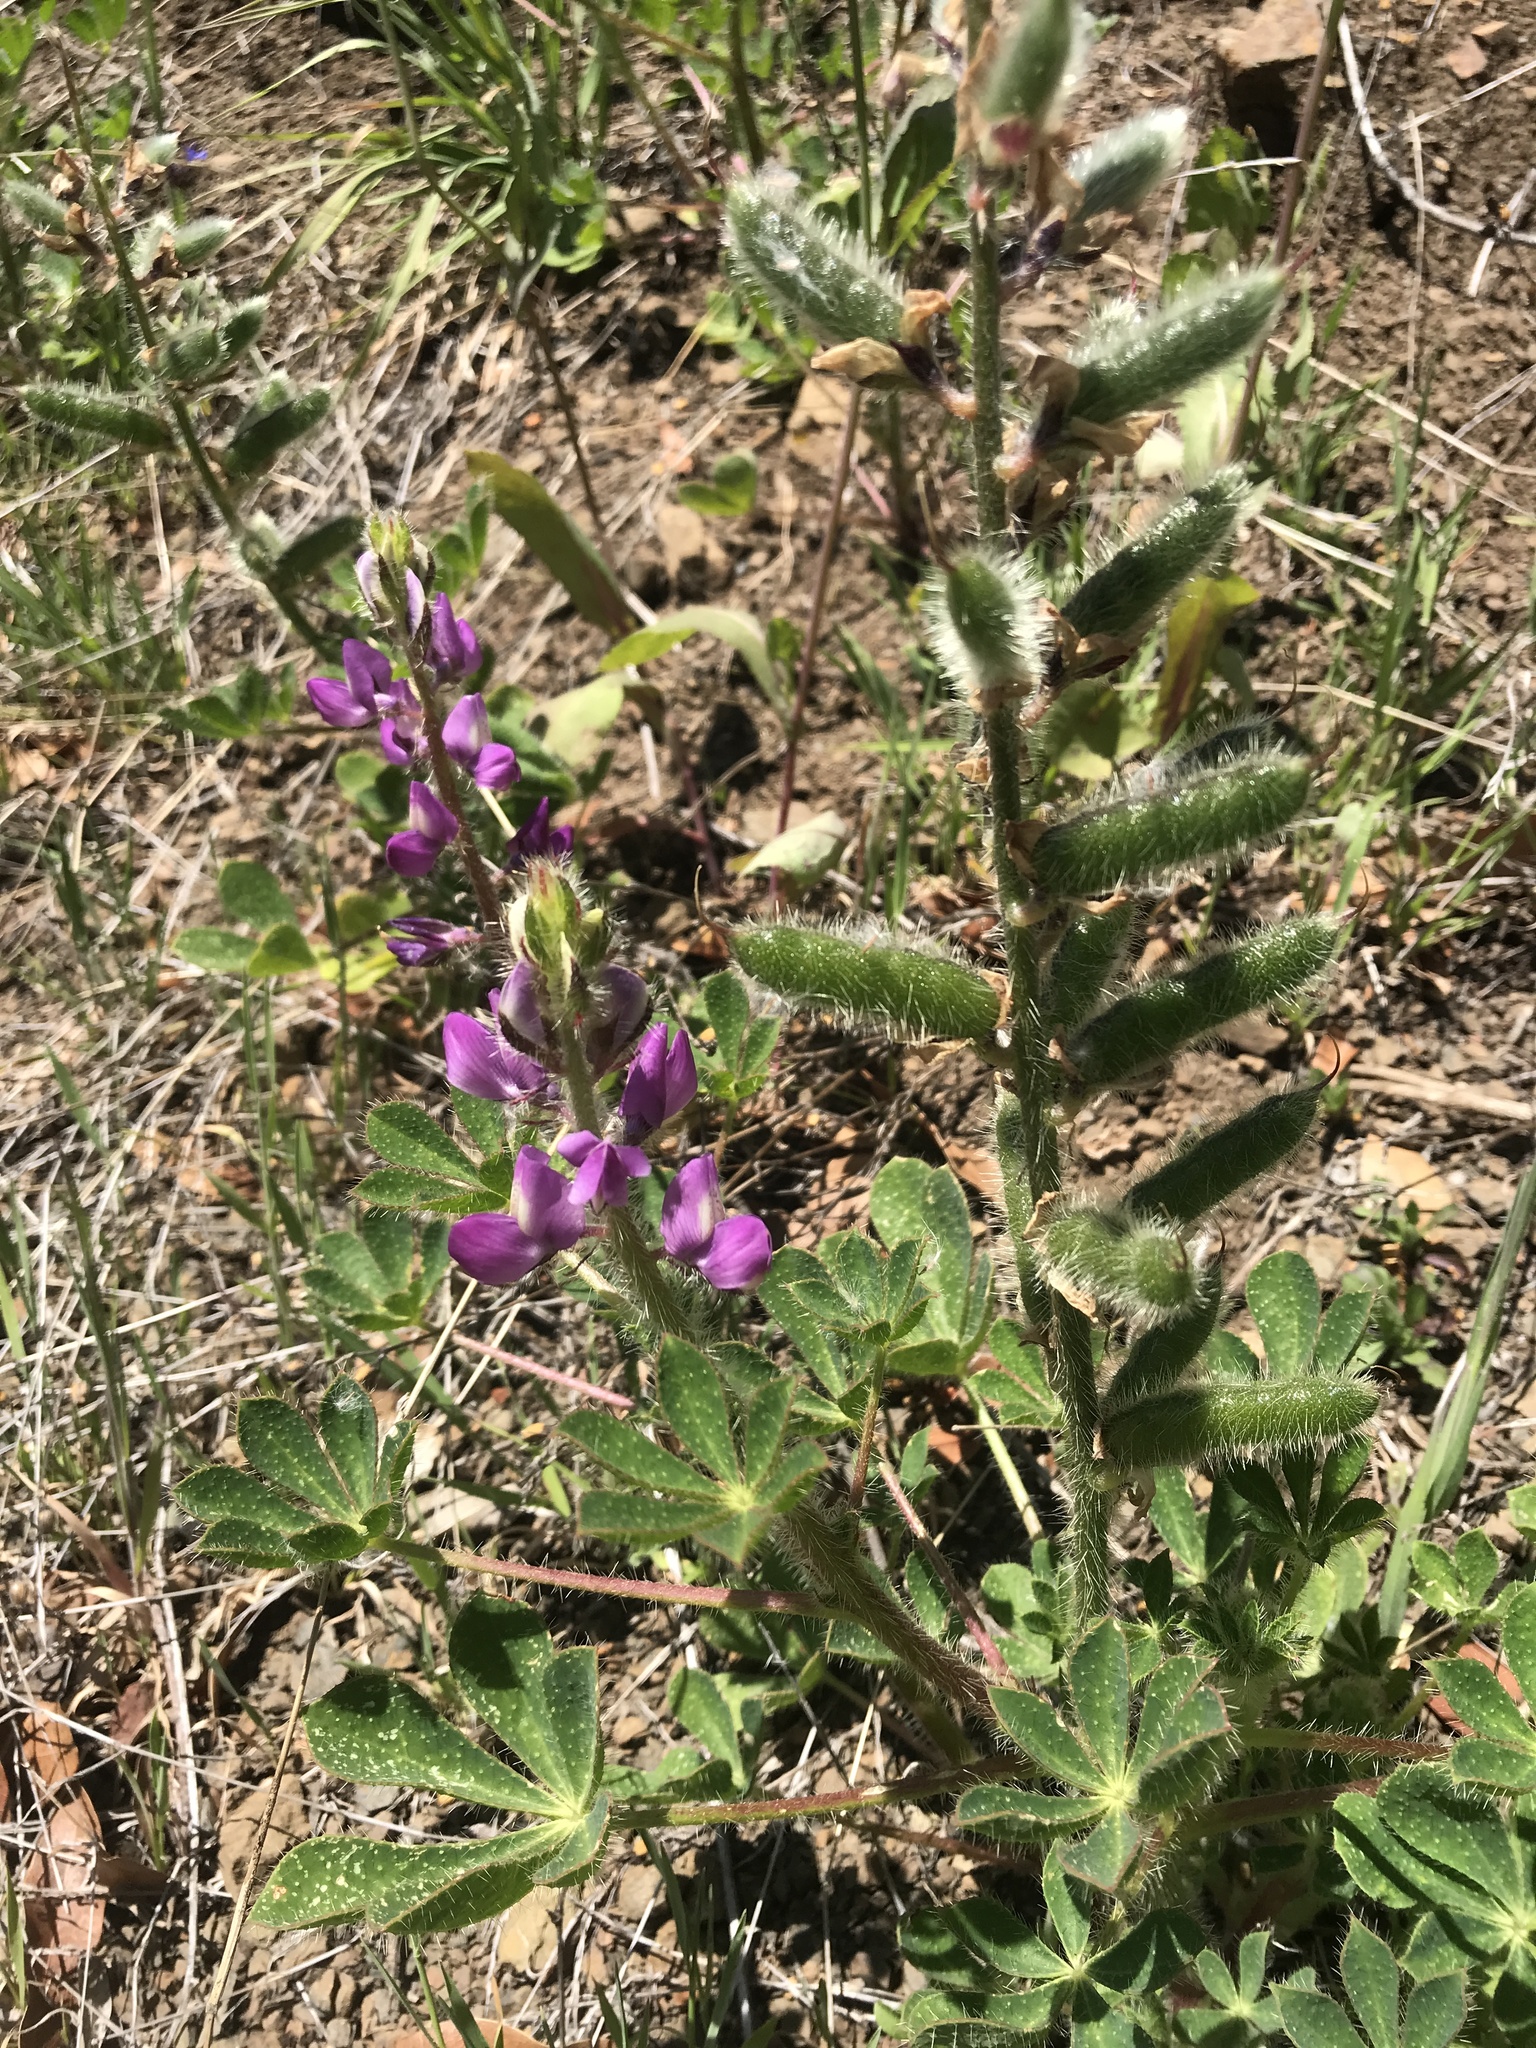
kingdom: Plantae
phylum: Tracheophyta
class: Magnoliopsida
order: Fabales
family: Fabaceae
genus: Lupinus
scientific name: Lupinus hirsutissimus
